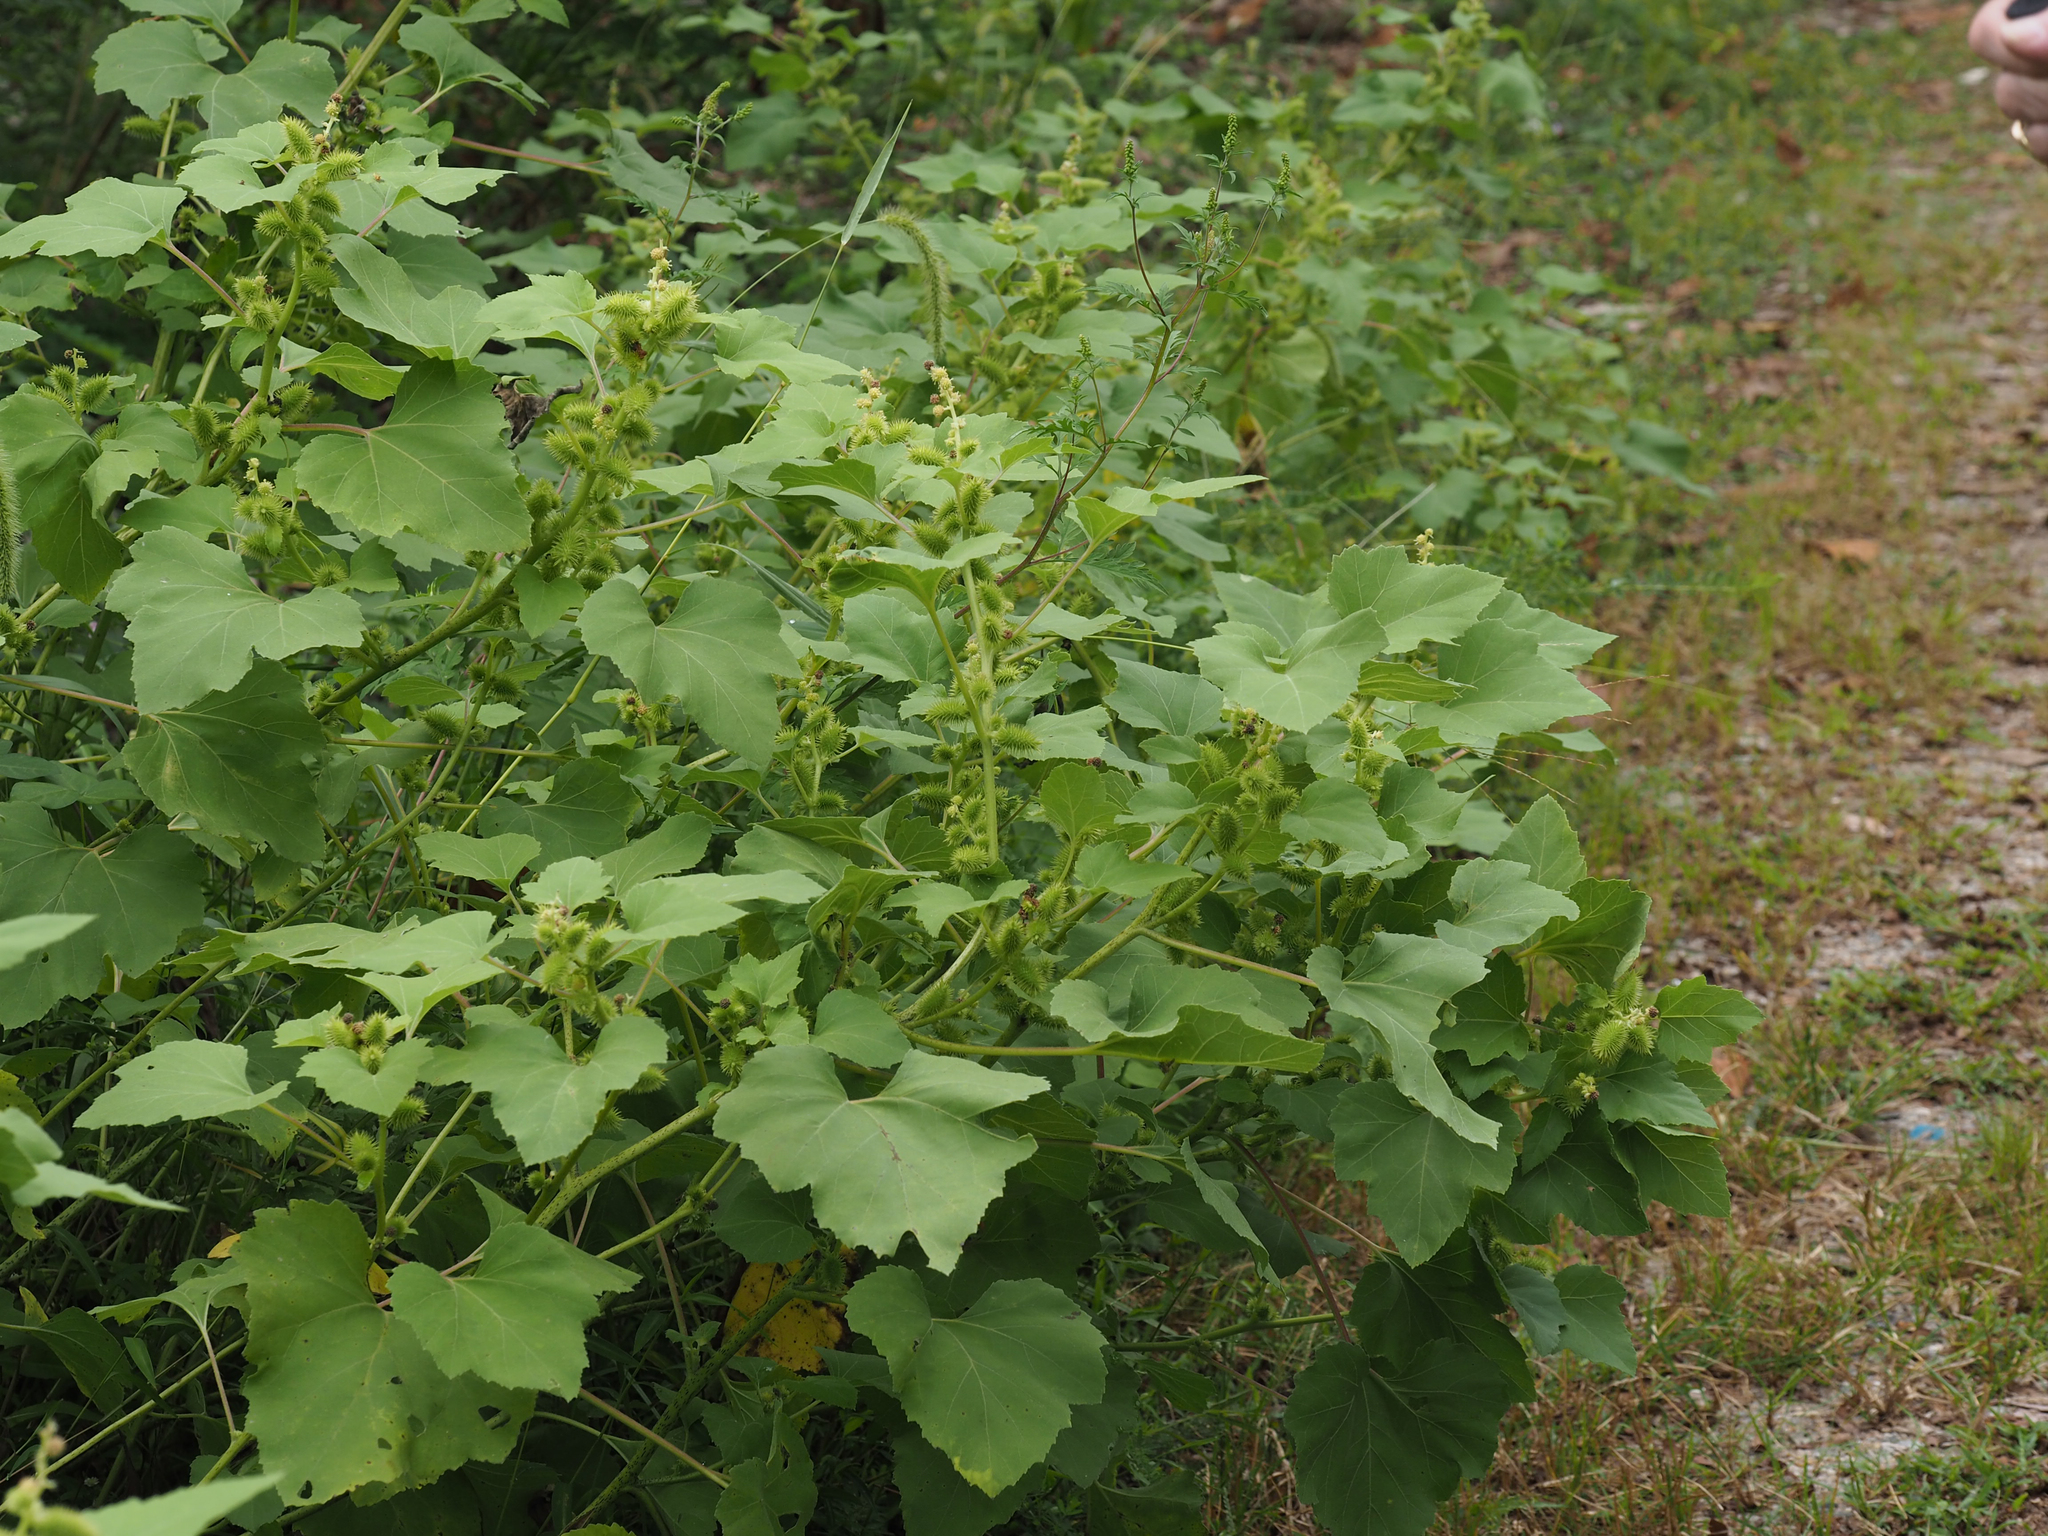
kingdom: Plantae
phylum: Tracheophyta
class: Magnoliopsida
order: Asterales
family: Asteraceae
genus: Xanthium
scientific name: Xanthium strumarium
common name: Rough cocklebur
